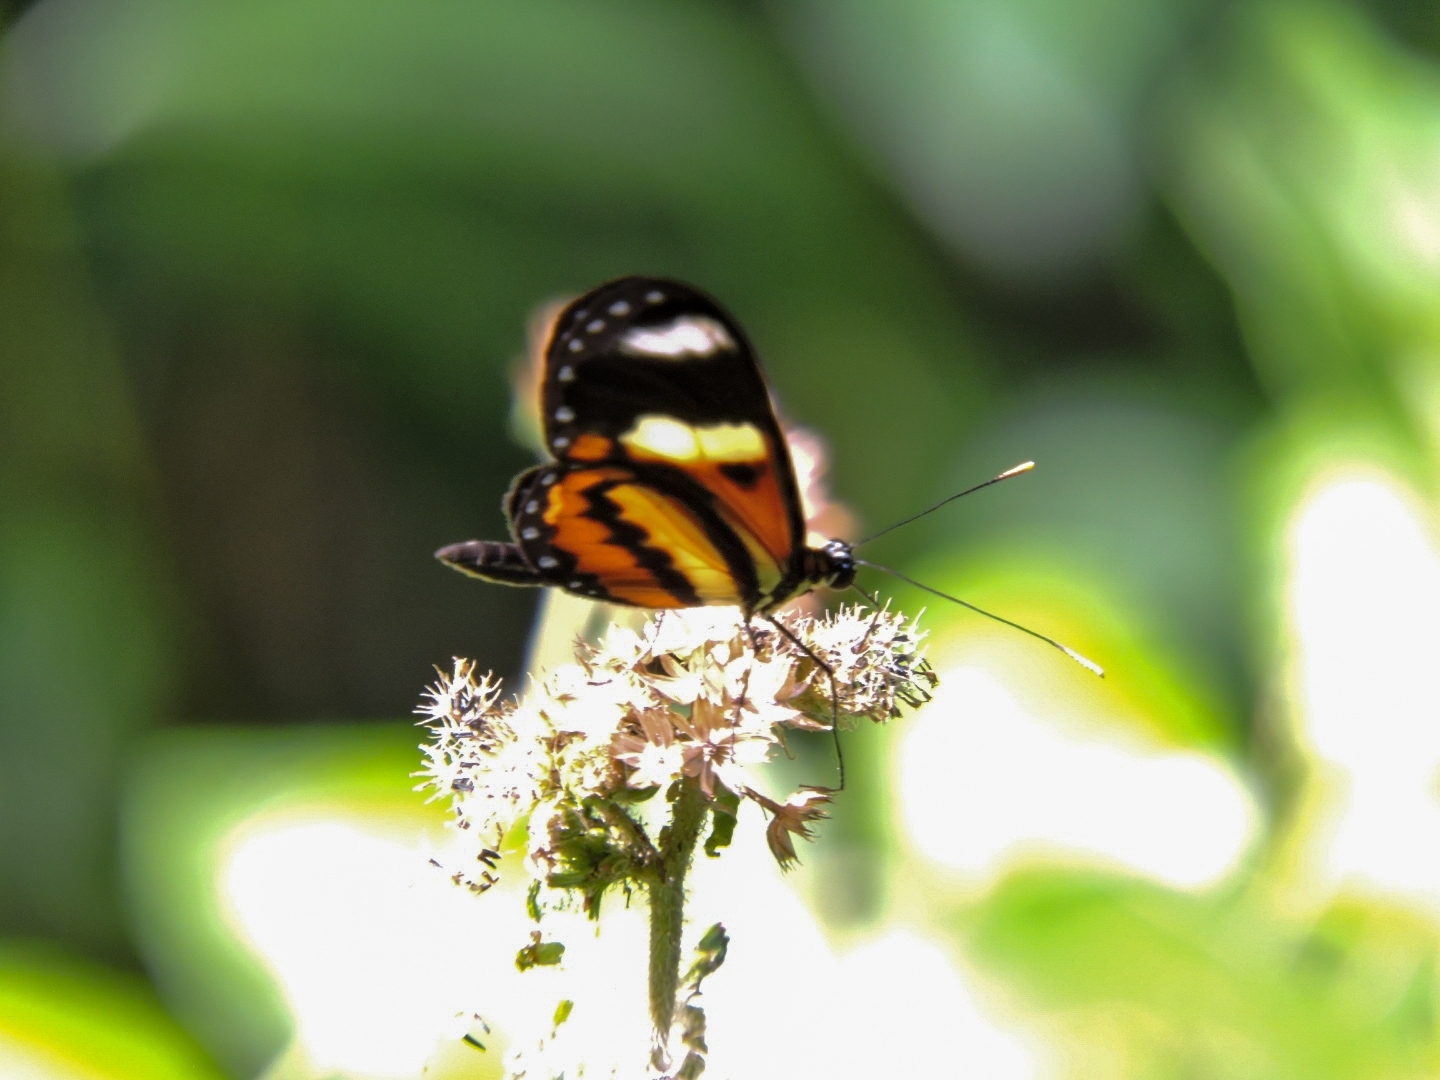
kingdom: Animalia
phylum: Arthropoda
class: Insecta
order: Lepidoptera
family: Nymphalidae
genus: Mechanitis
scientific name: Mechanitis lysimnia
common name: Lysimnia tigerwing
